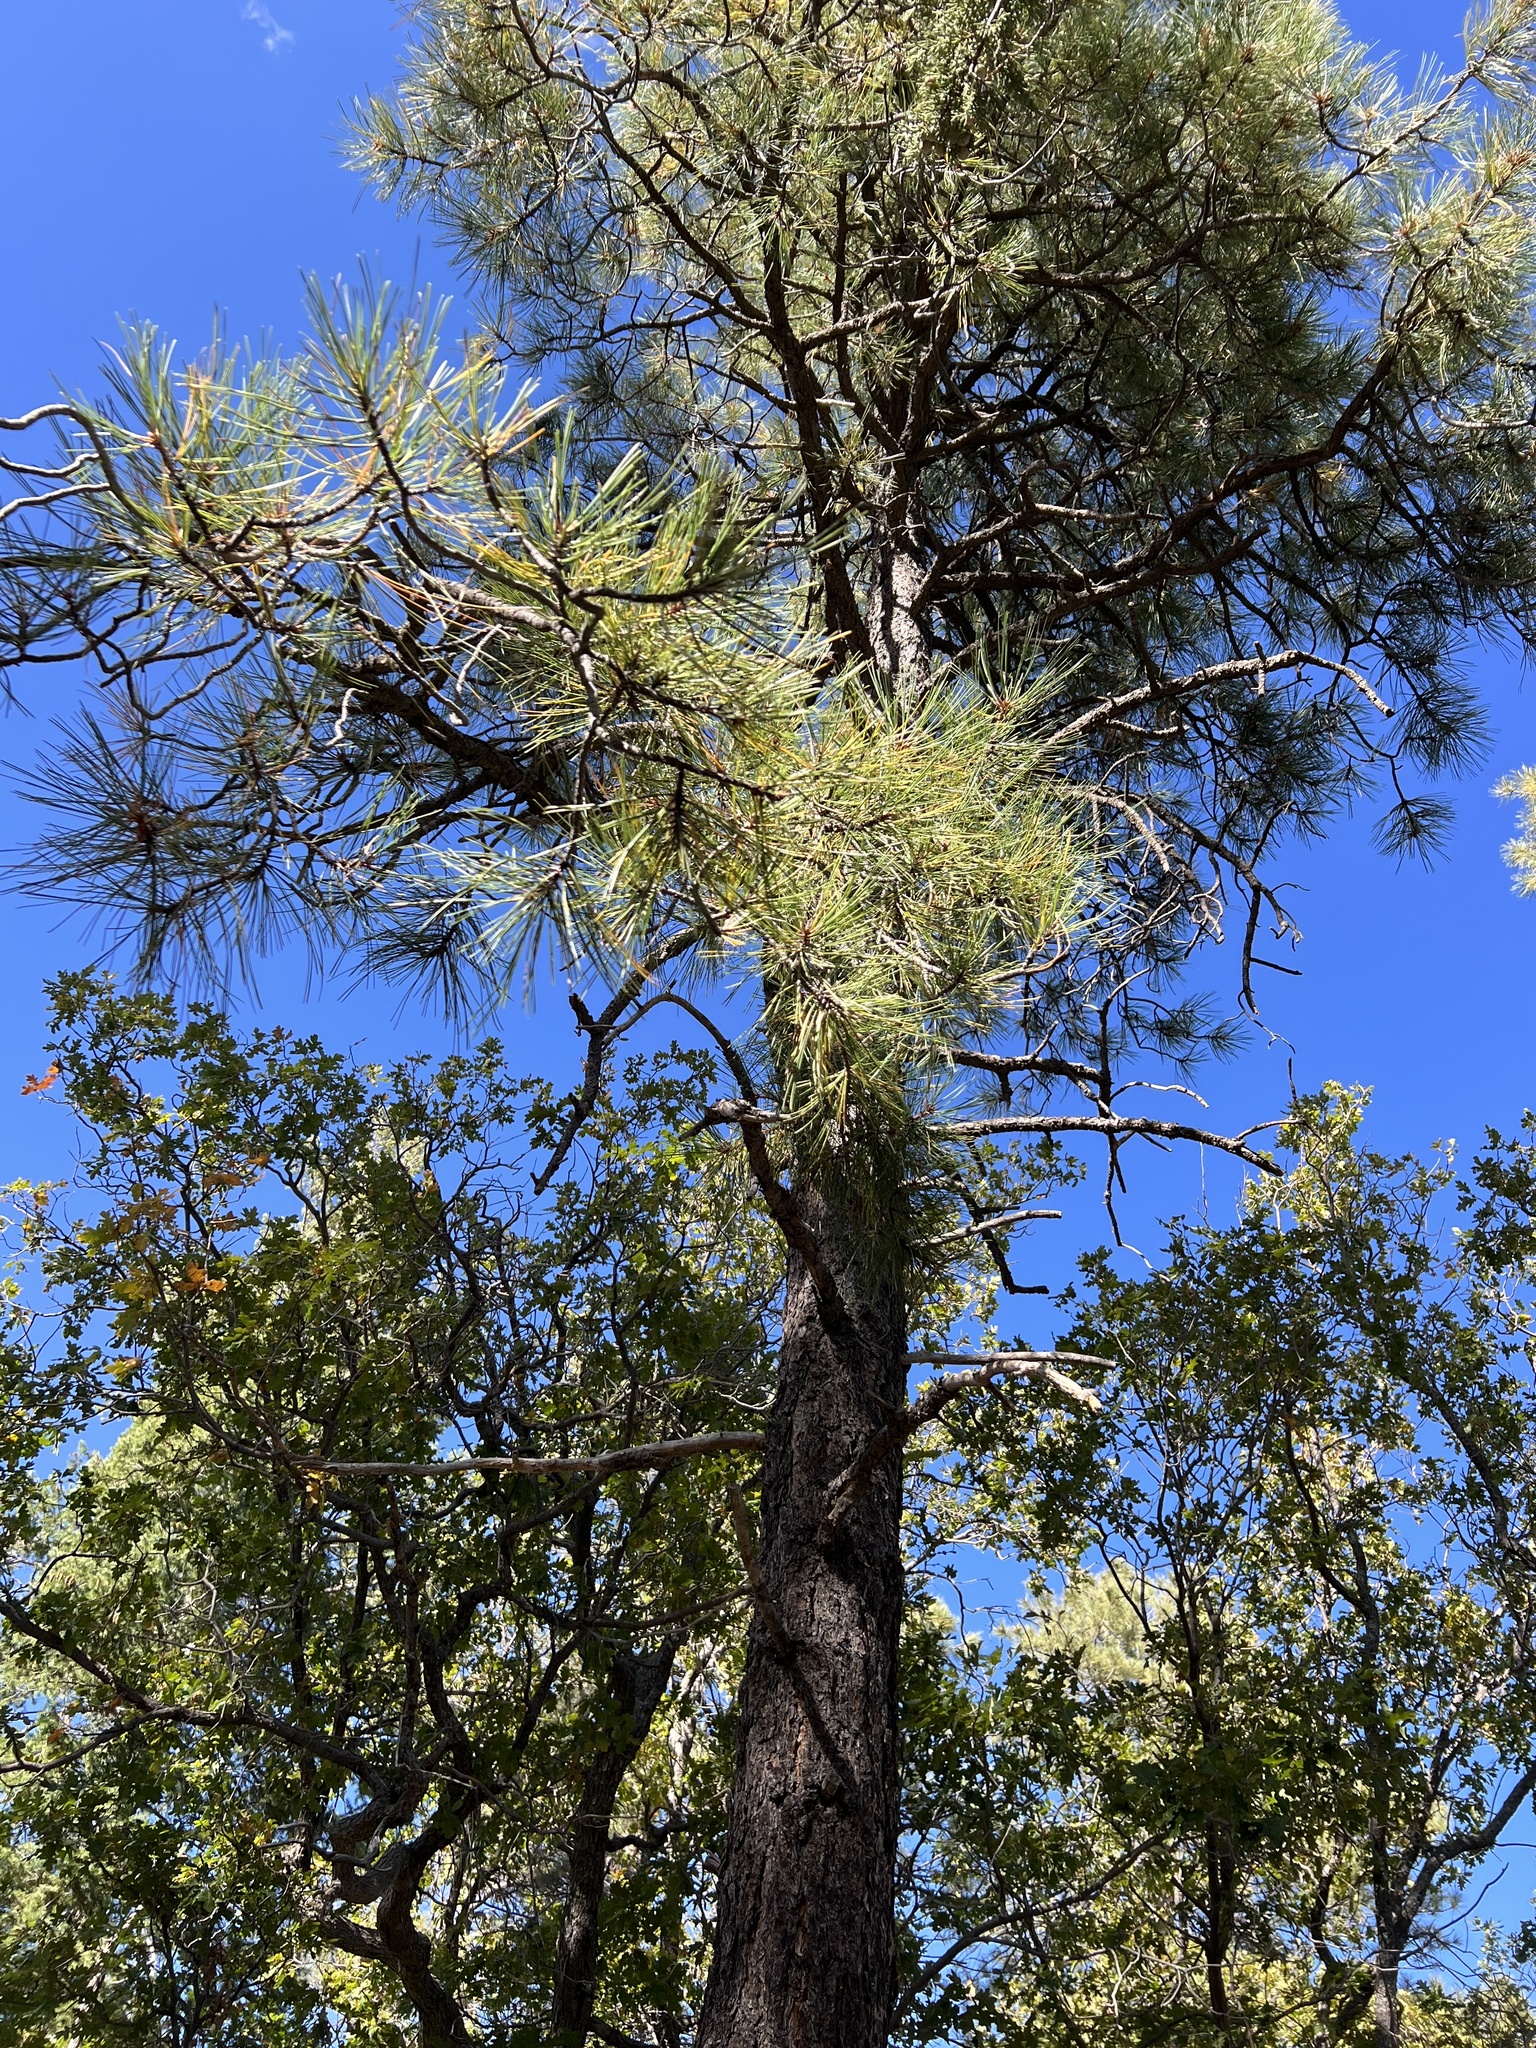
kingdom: Plantae
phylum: Tracheophyta
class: Pinopsida
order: Pinales
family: Pinaceae
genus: Pinus
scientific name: Pinus ponderosa
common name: Western yellow-pine
